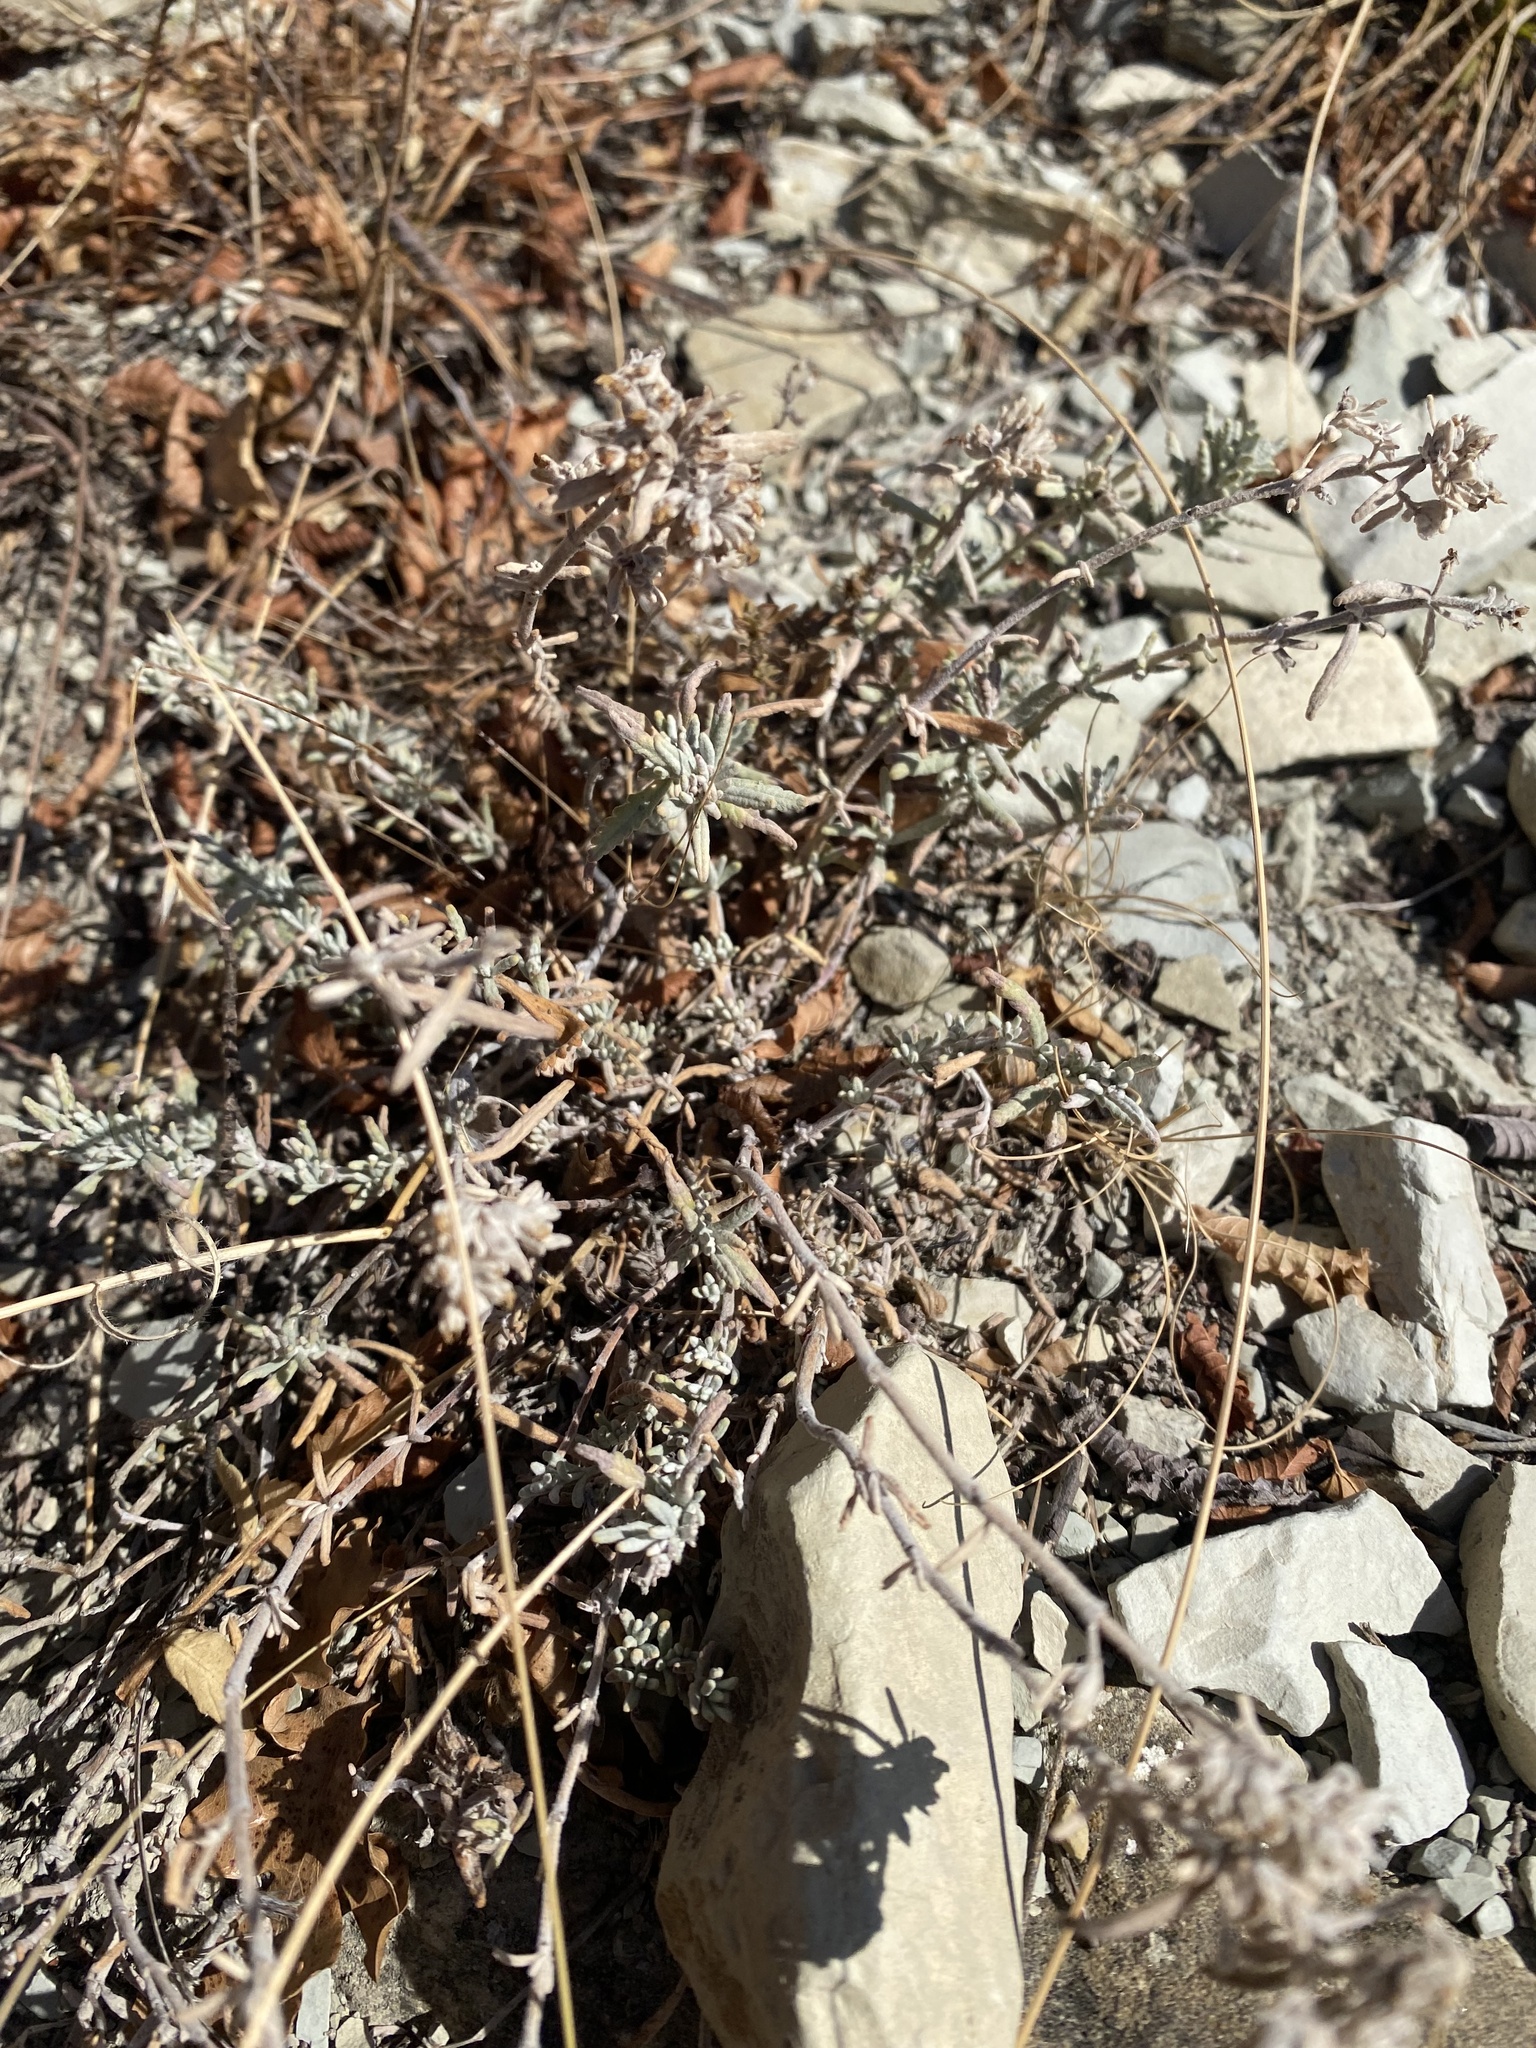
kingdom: Plantae
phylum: Tracheophyta
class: Magnoliopsida
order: Lamiales
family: Lamiaceae
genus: Teucrium
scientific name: Teucrium polium
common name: Poley
